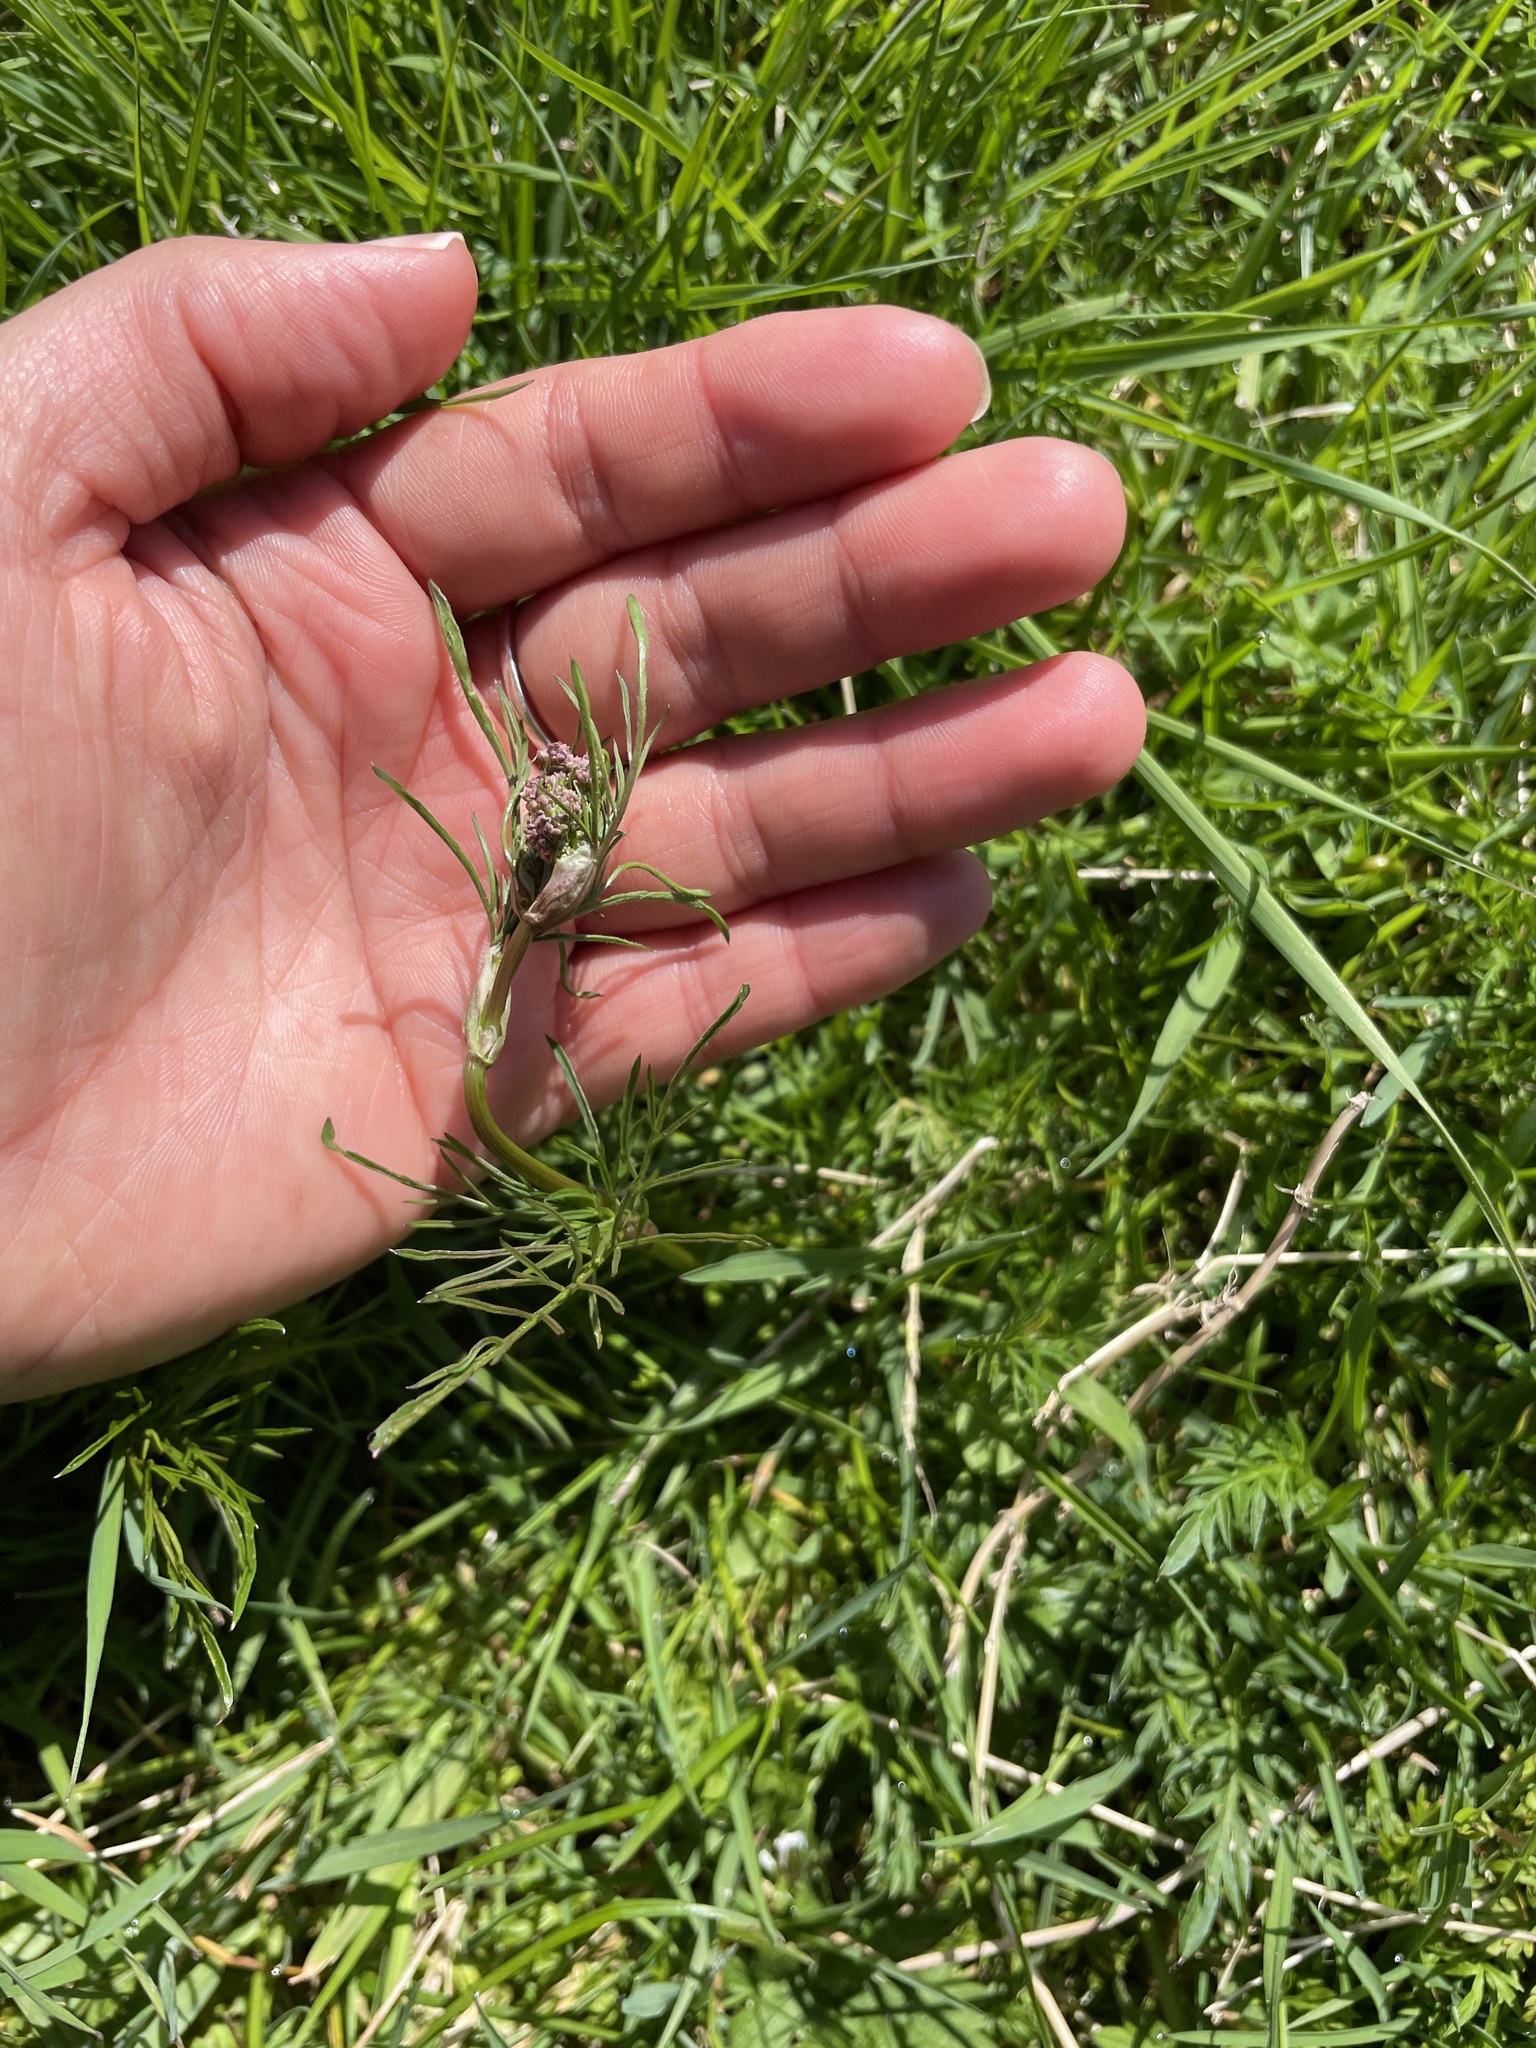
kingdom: Plantae
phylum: Tracheophyta
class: Magnoliopsida
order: Apiales
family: Apiaceae
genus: Conopodium
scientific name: Conopodium majus
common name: Pignut
